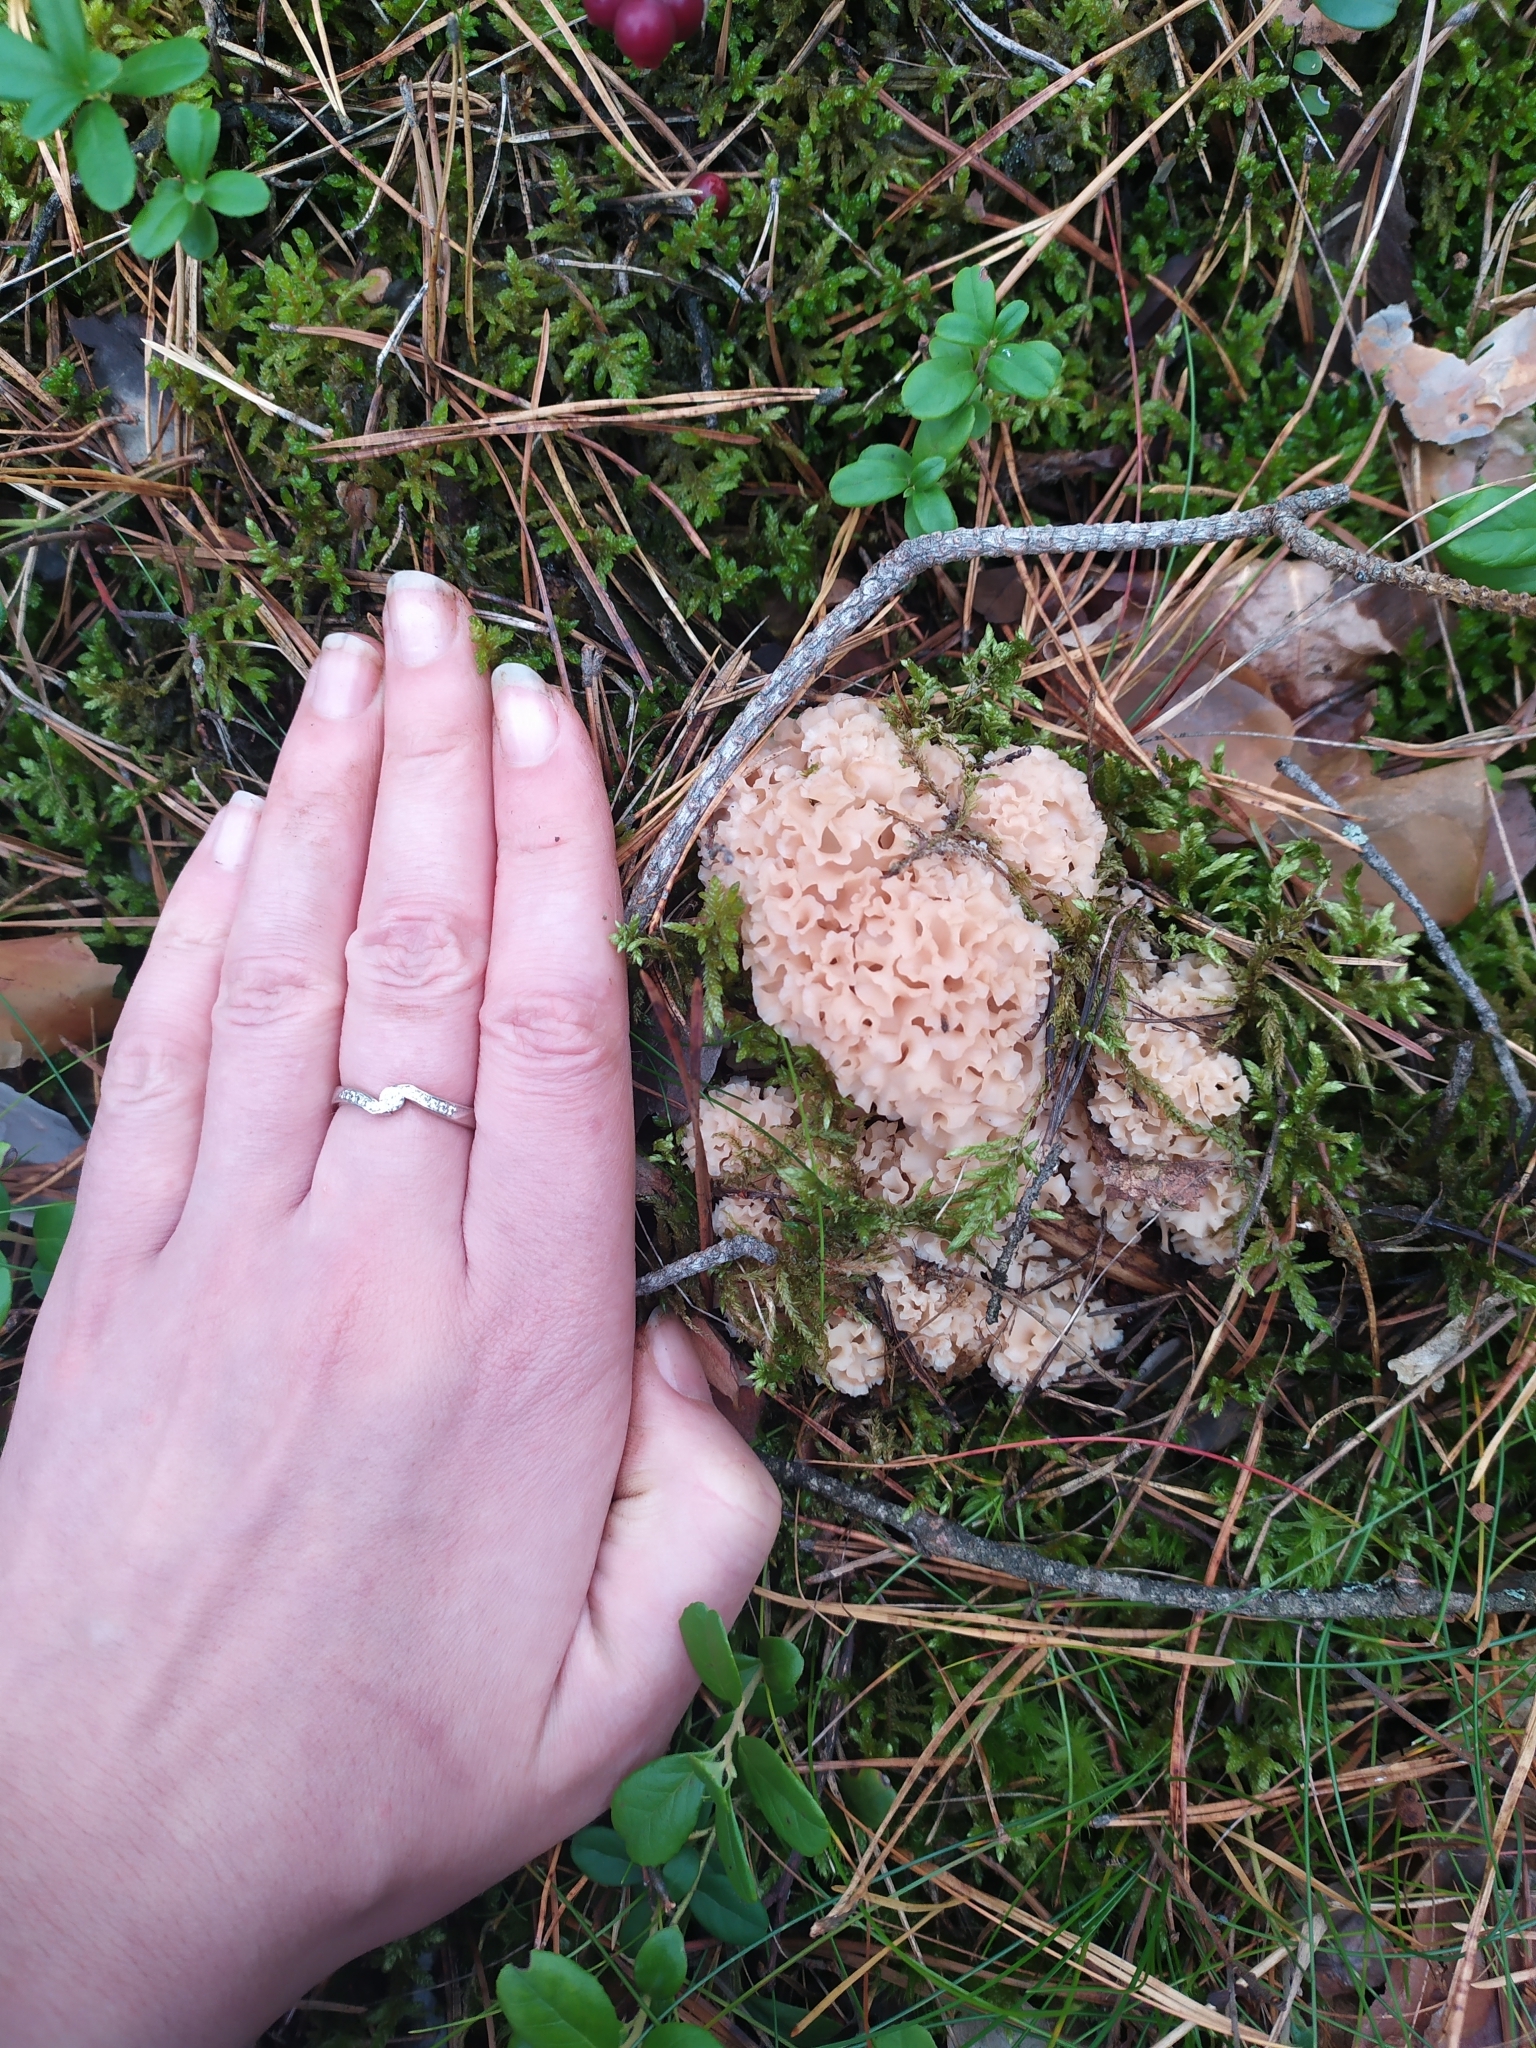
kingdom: Fungi
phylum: Basidiomycota
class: Agaricomycetes
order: Polyporales
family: Sparassidaceae
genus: Sparassis
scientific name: Sparassis crispa
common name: Brain fungus
